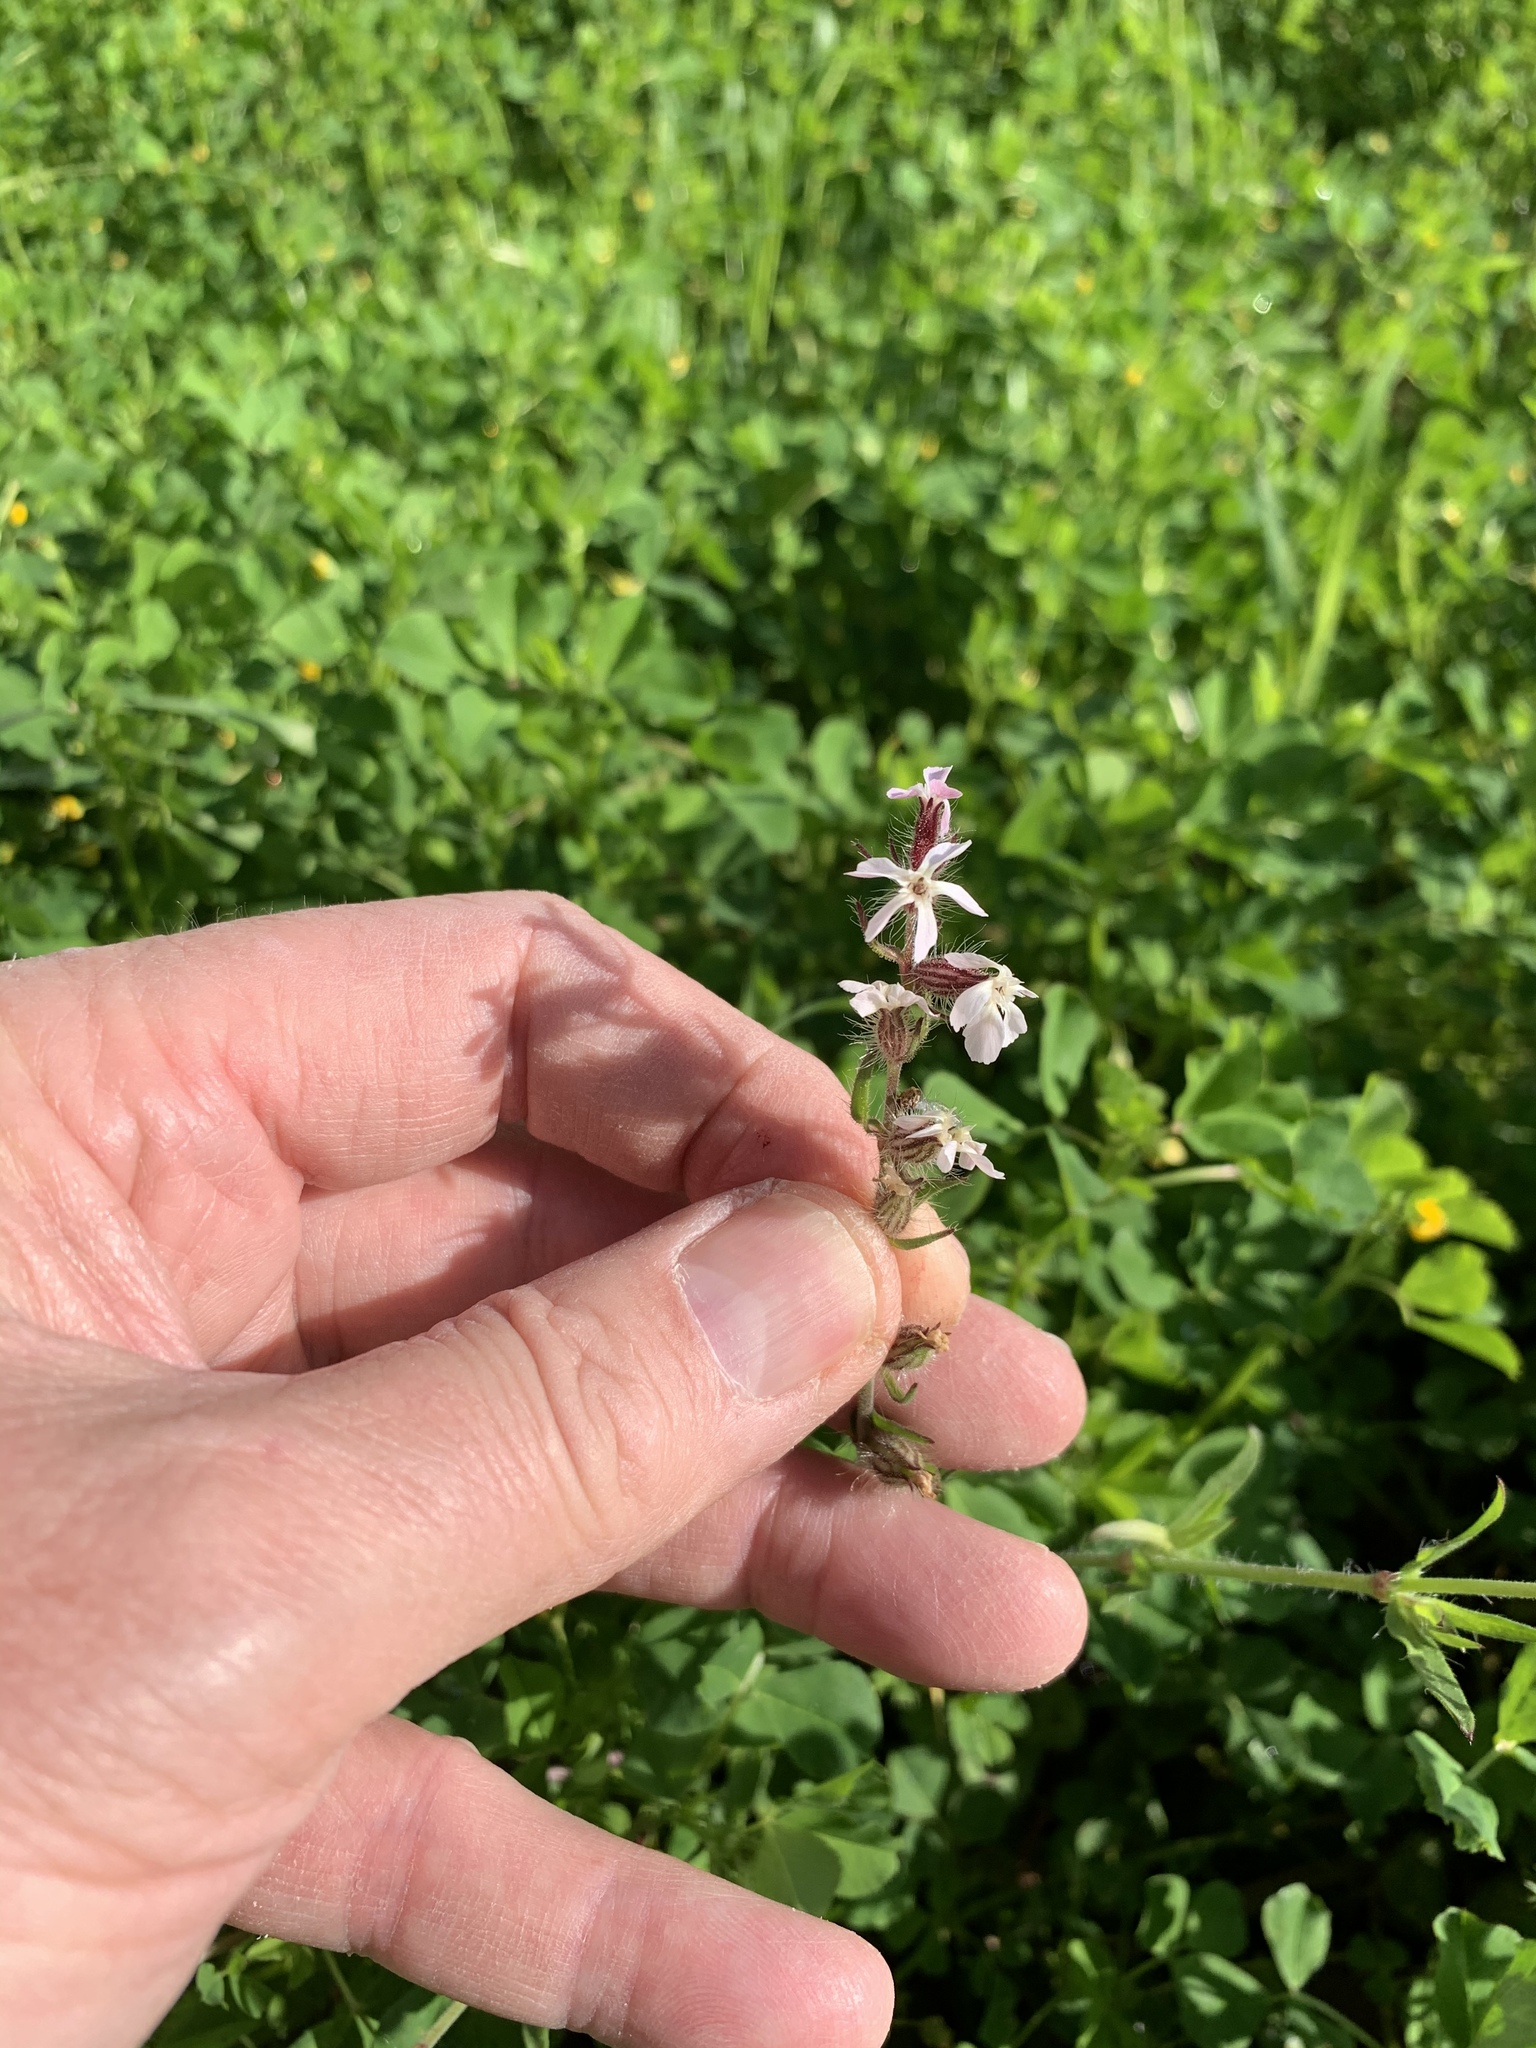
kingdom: Plantae
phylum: Tracheophyta
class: Magnoliopsida
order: Caryophyllales
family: Caryophyllaceae
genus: Silene
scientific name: Silene gallica
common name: Small-flowered catchfly
